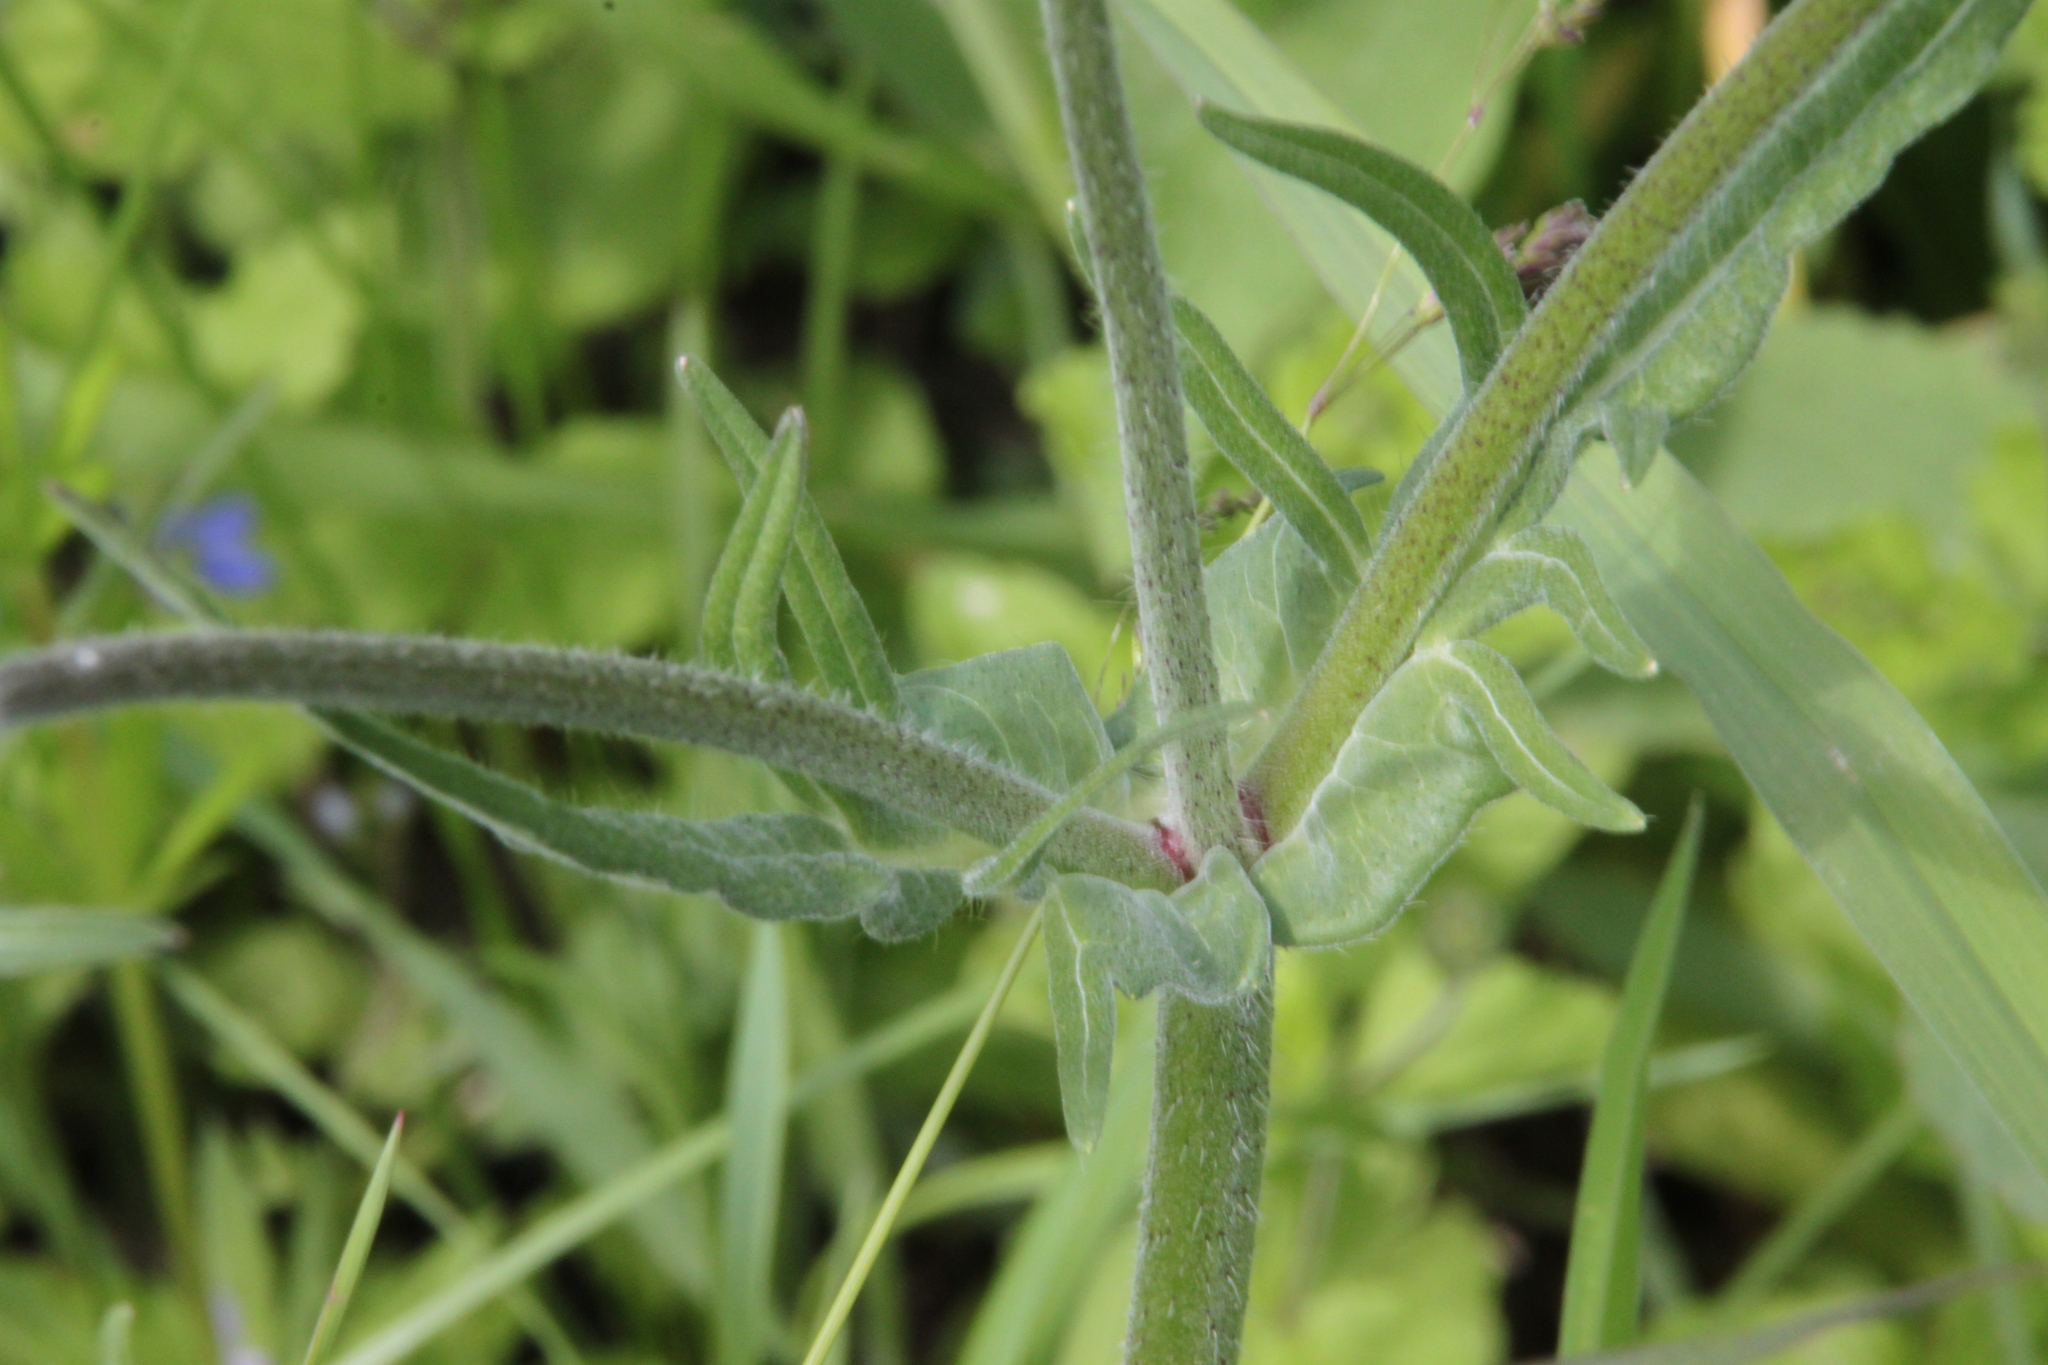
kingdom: Plantae
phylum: Tracheophyta
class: Magnoliopsida
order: Dipsacales
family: Caprifoliaceae
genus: Knautia
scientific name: Knautia arvensis
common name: Field scabiosa
